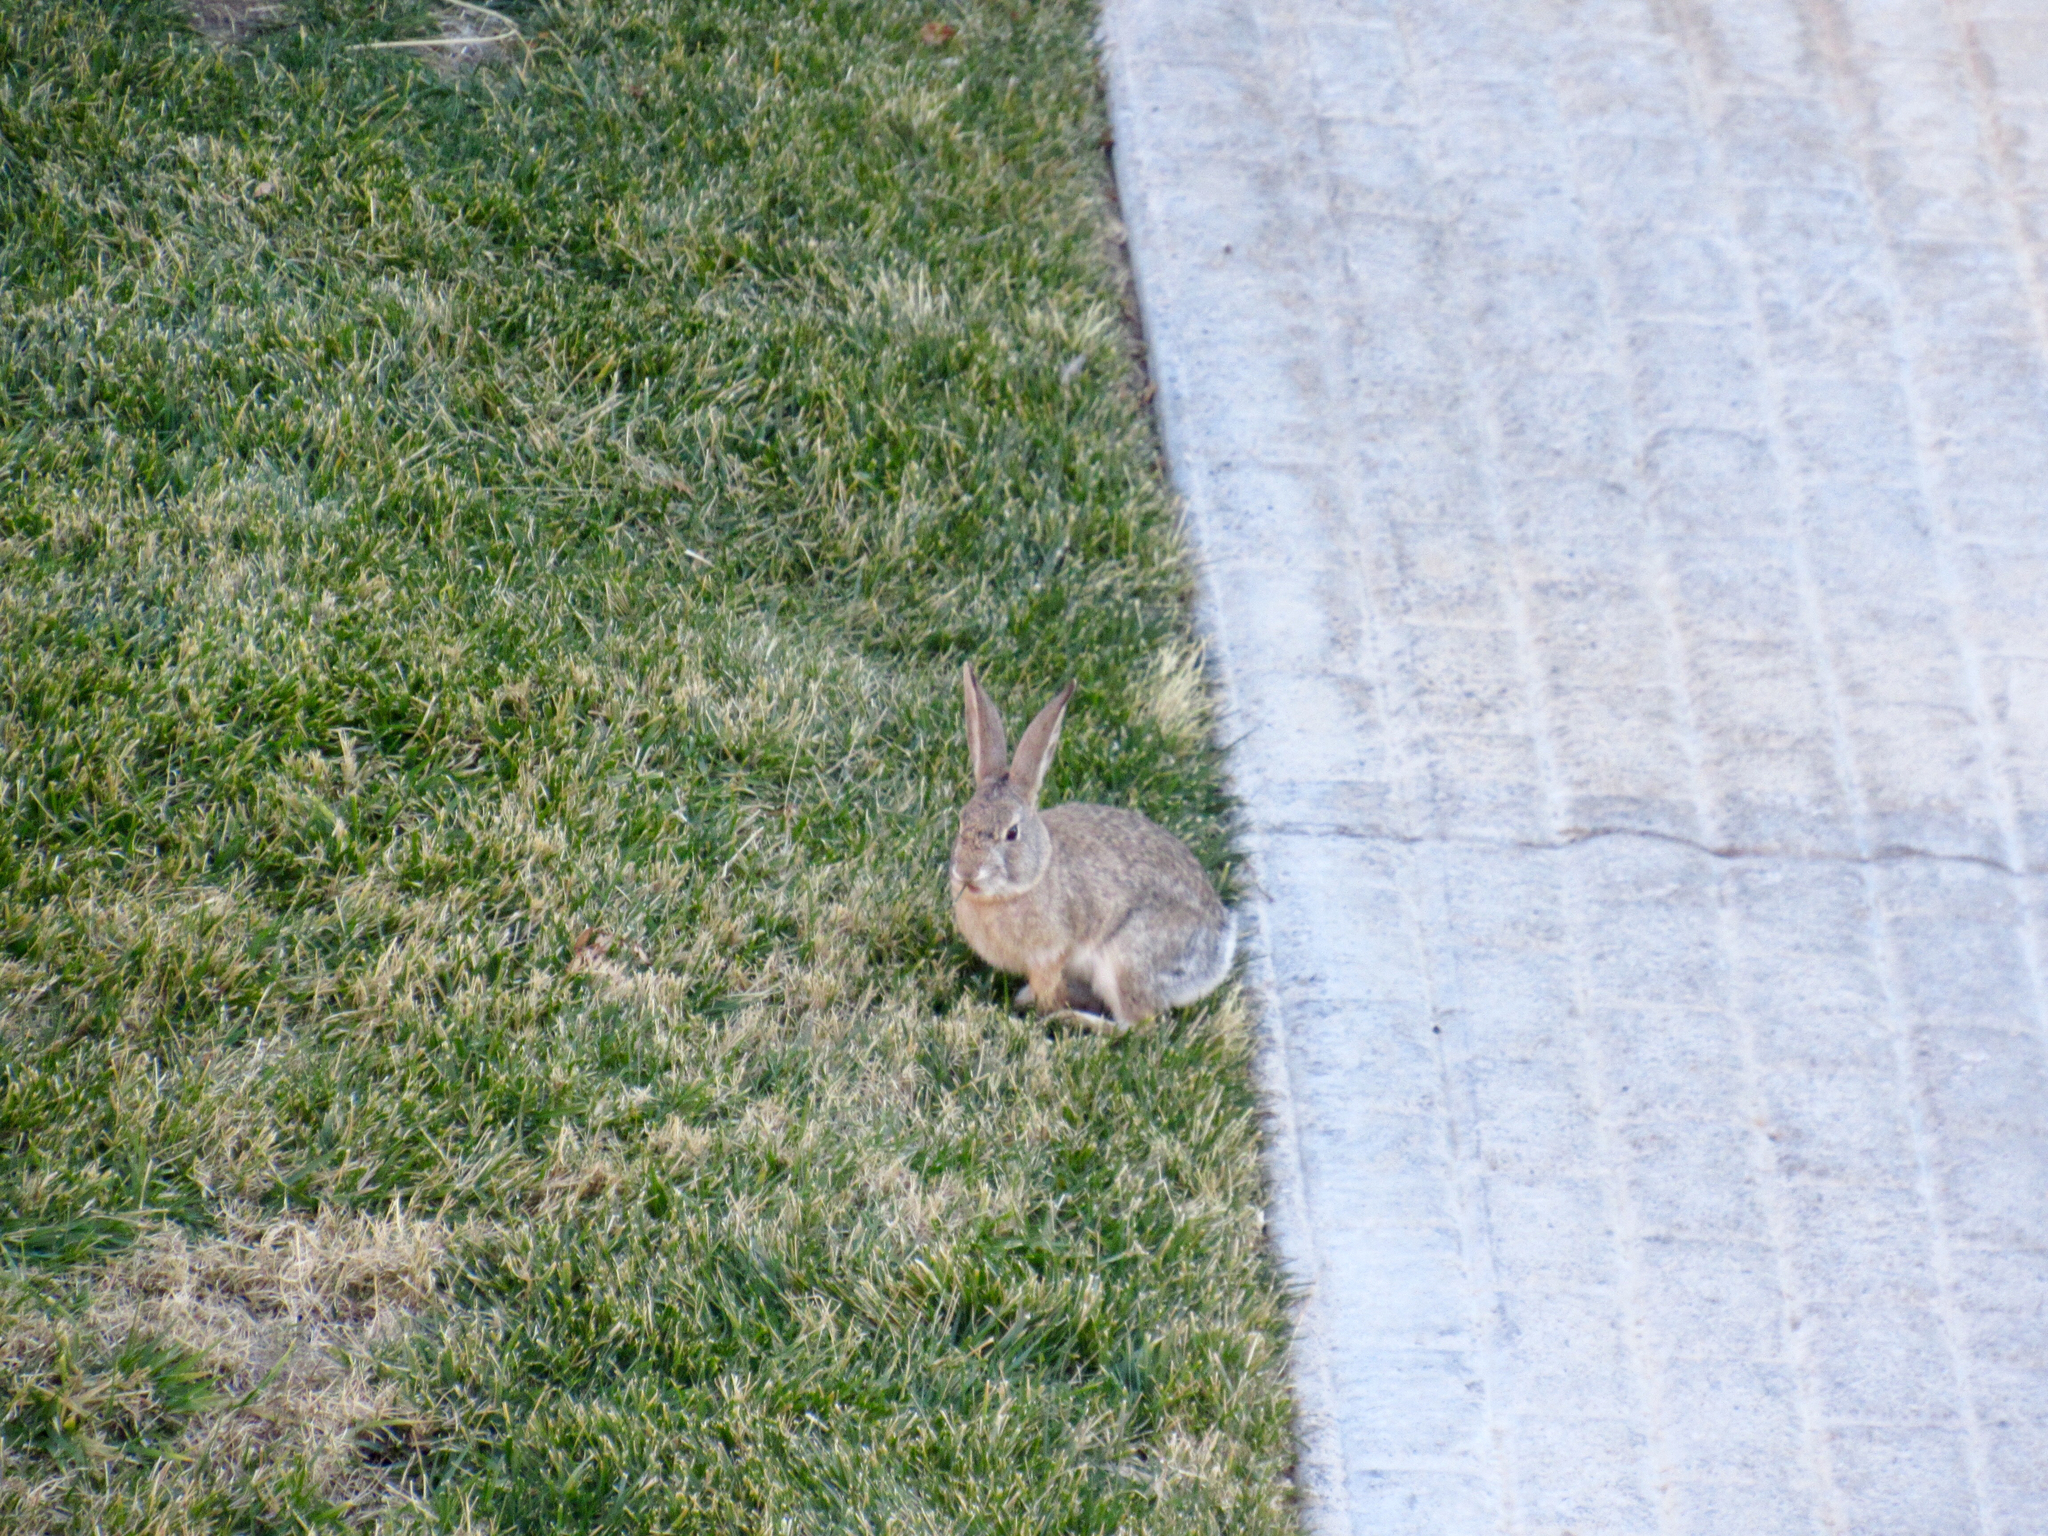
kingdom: Animalia
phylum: Chordata
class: Mammalia
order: Lagomorpha
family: Leporidae
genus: Sylvilagus
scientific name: Sylvilagus audubonii
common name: Desert cottontail
